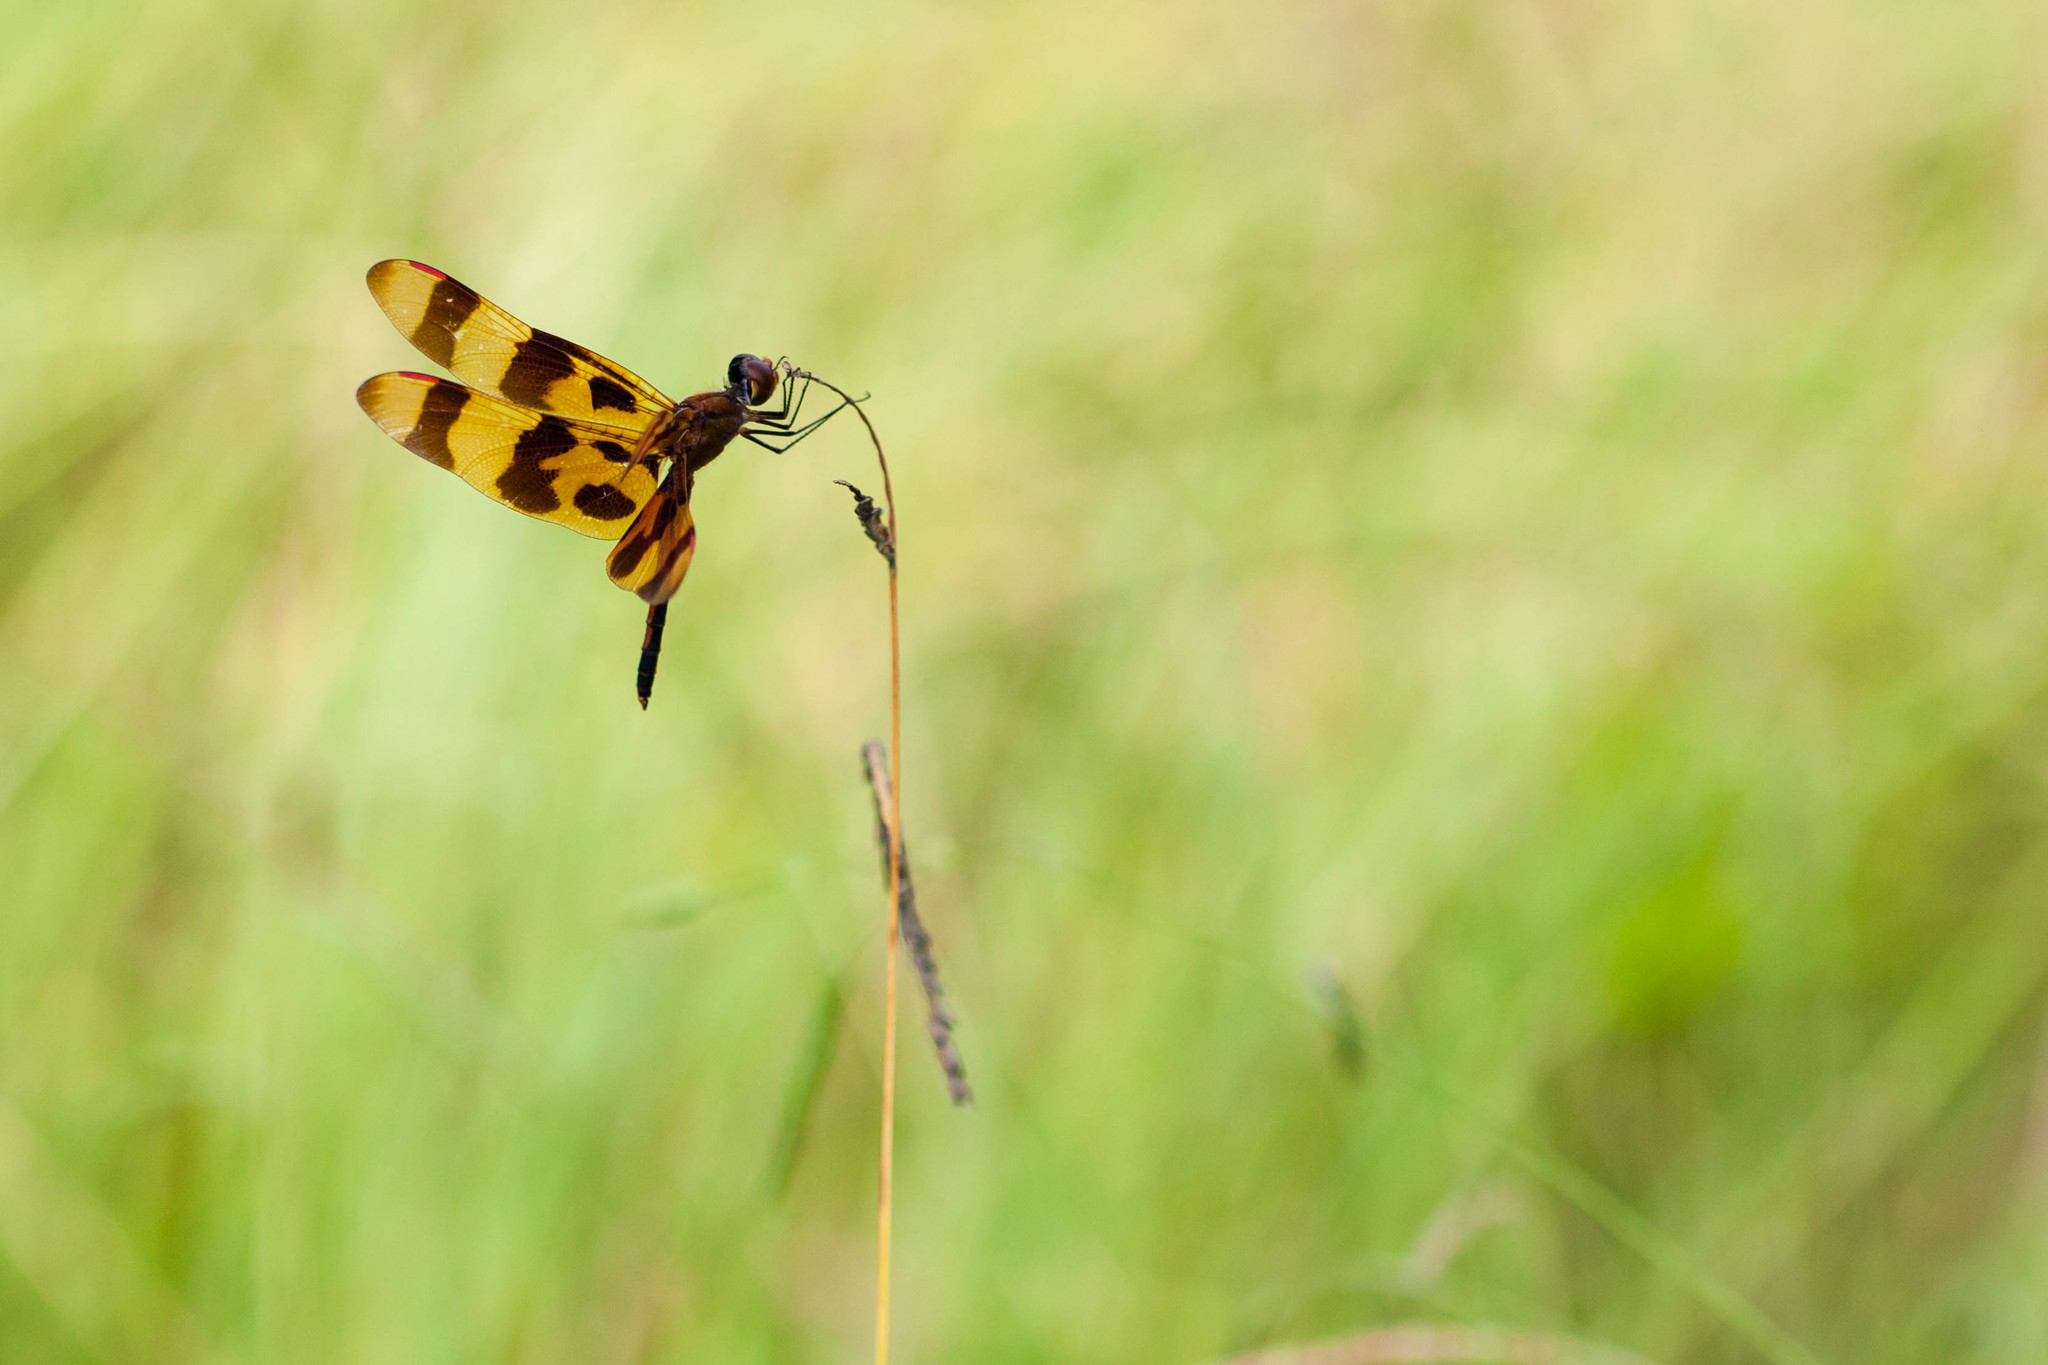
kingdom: Animalia
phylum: Arthropoda
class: Insecta
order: Odonata
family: Libellulidae
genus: Celithemis
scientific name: Celithemis eponina
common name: Halloween pennant
